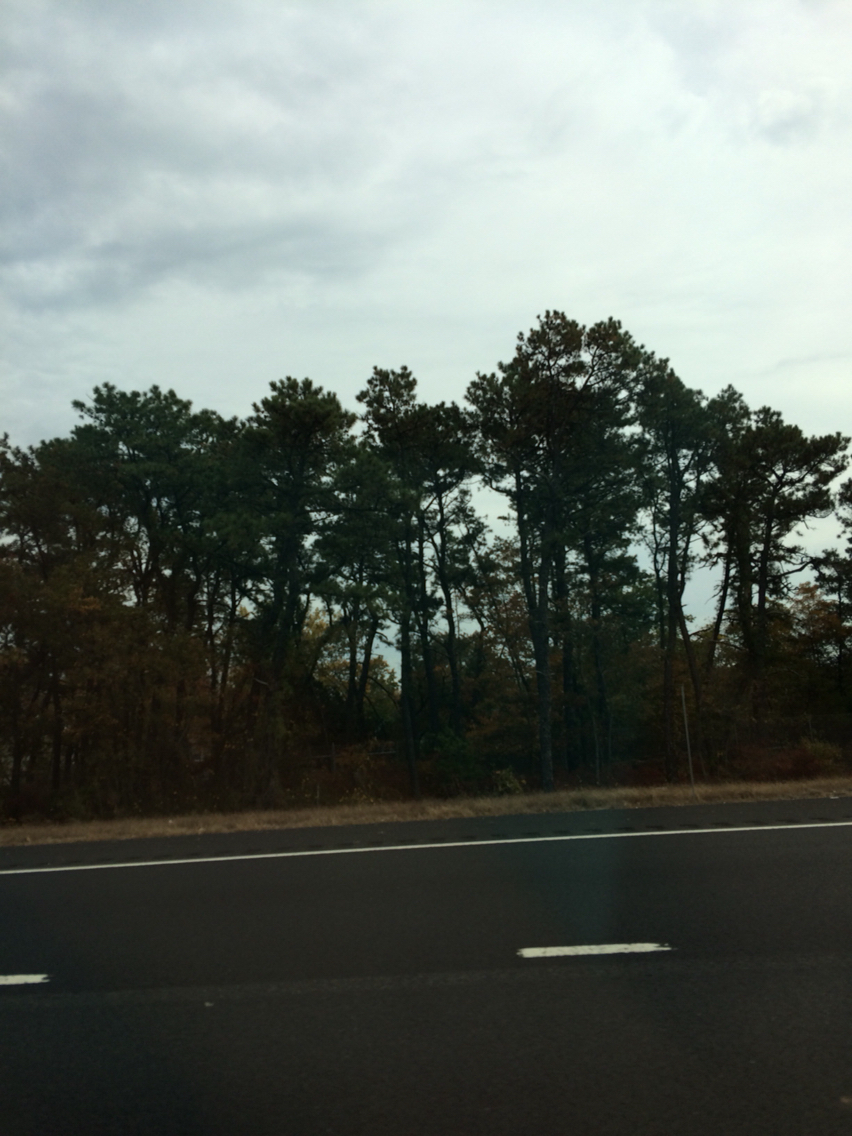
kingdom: Plantae
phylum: Tracheophyta
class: Pinopsida
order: Pinales
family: Pinaceae
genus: Pinus
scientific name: Pinus rigida
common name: Pitch pine
